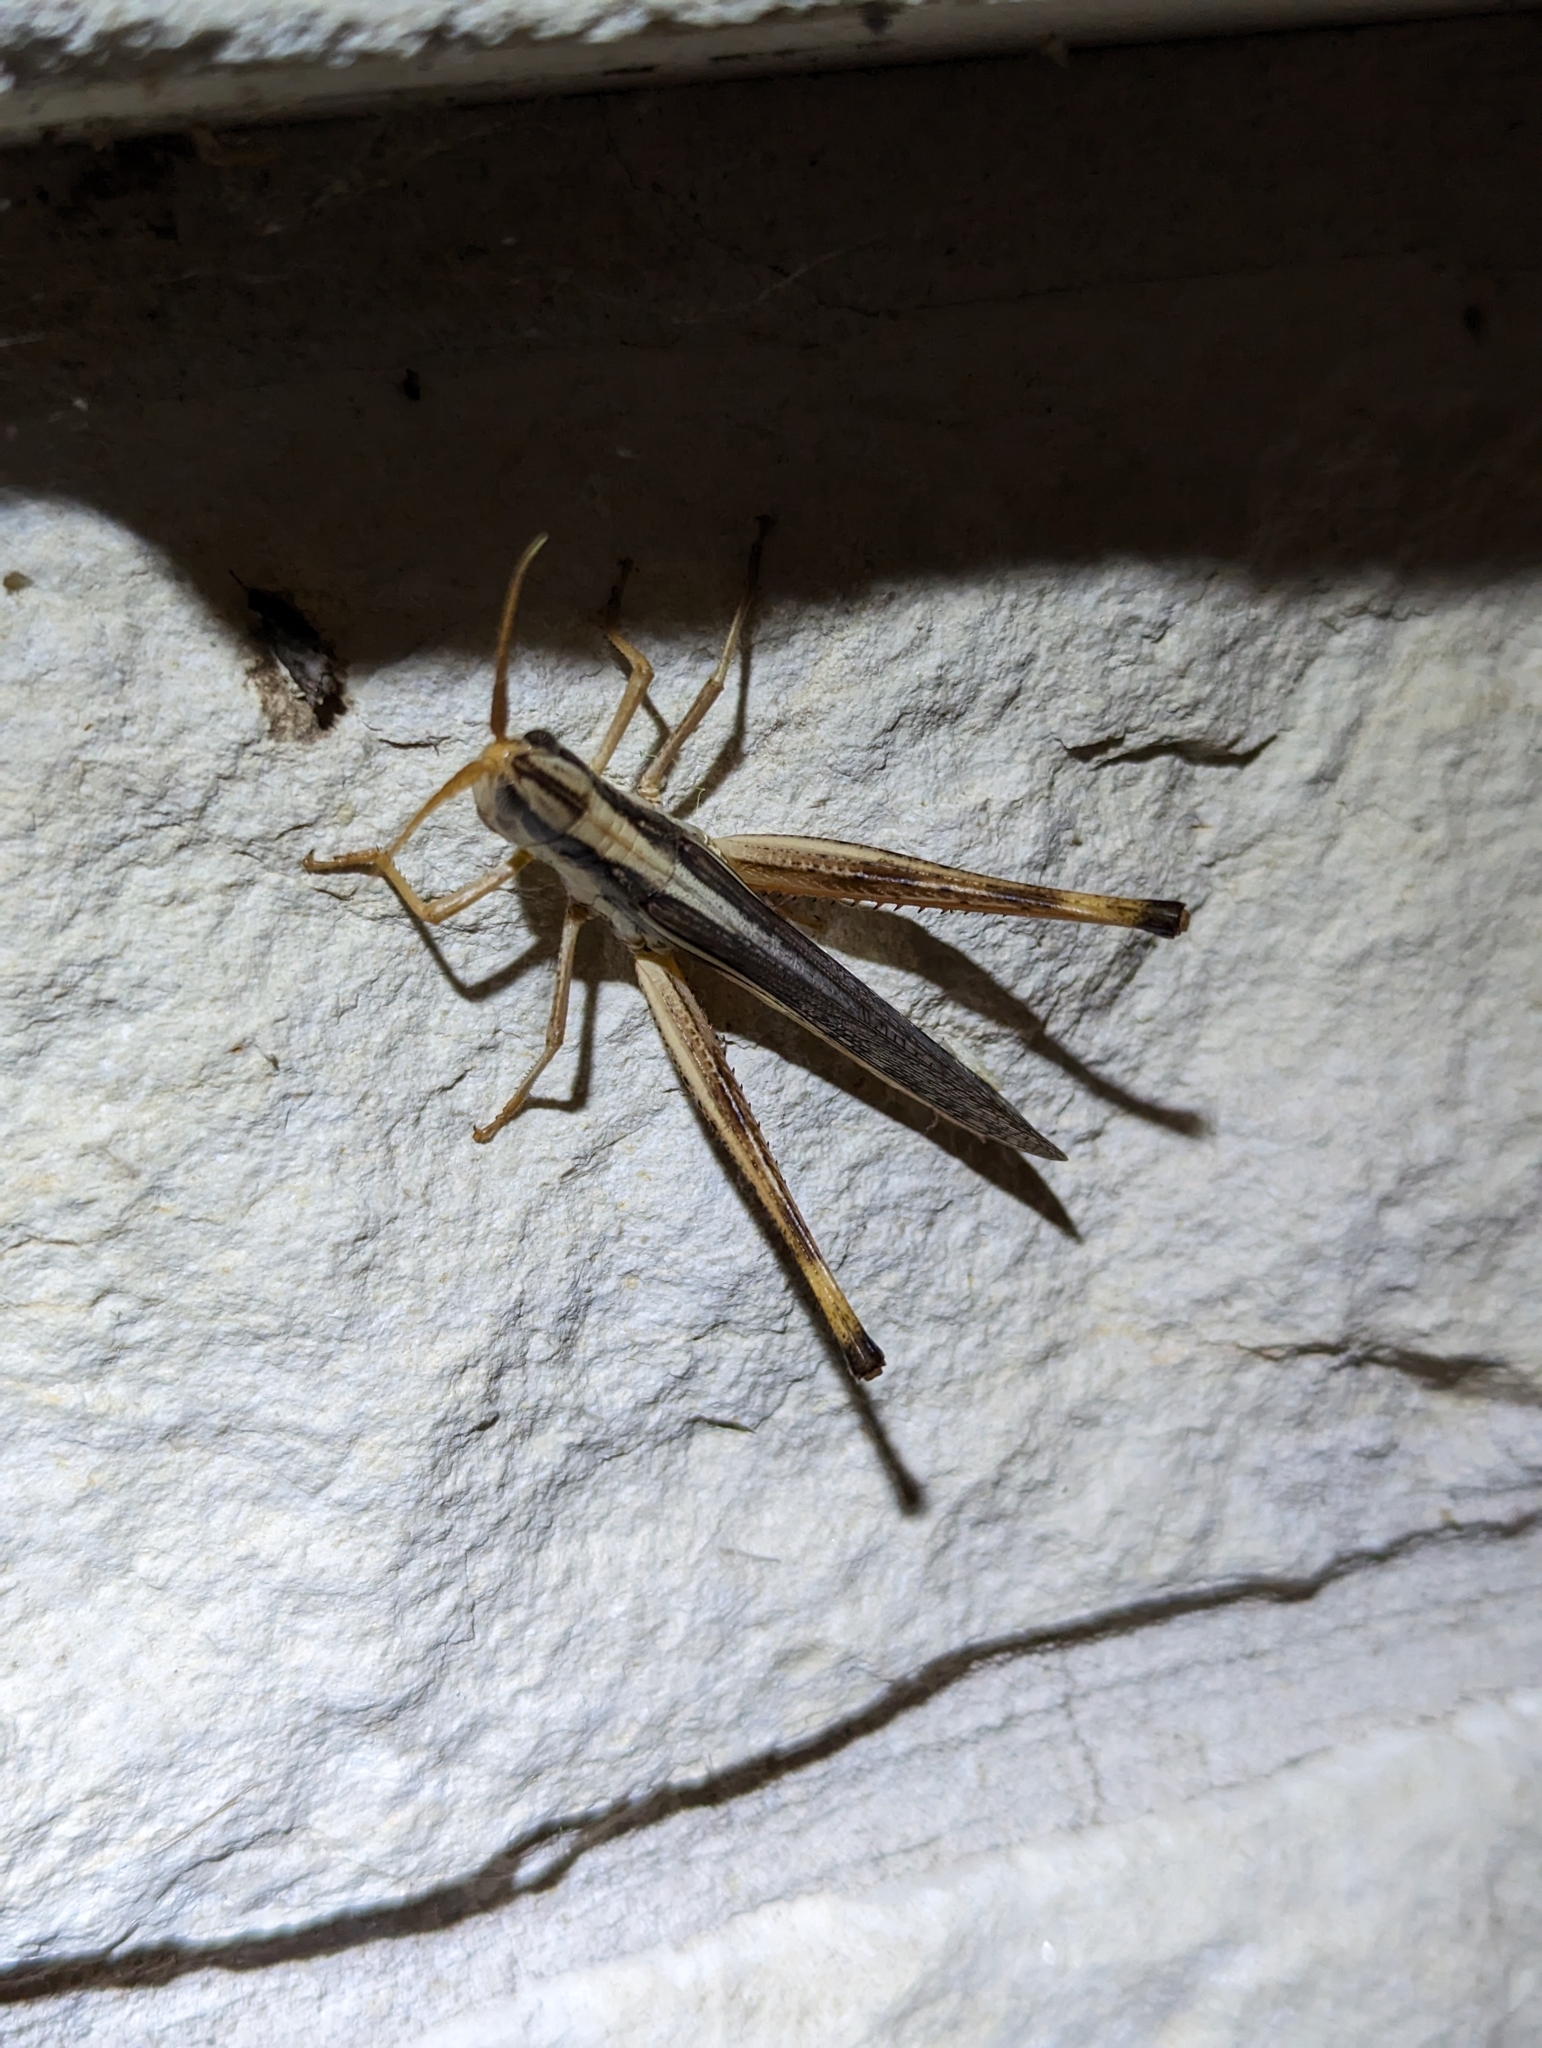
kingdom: Animalia
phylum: Arthropoda
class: Insecta
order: Orthoptera
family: Acrididae
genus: Mermiria
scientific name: Mermiria bivittata
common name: Two-striped mermiria grasshopper
